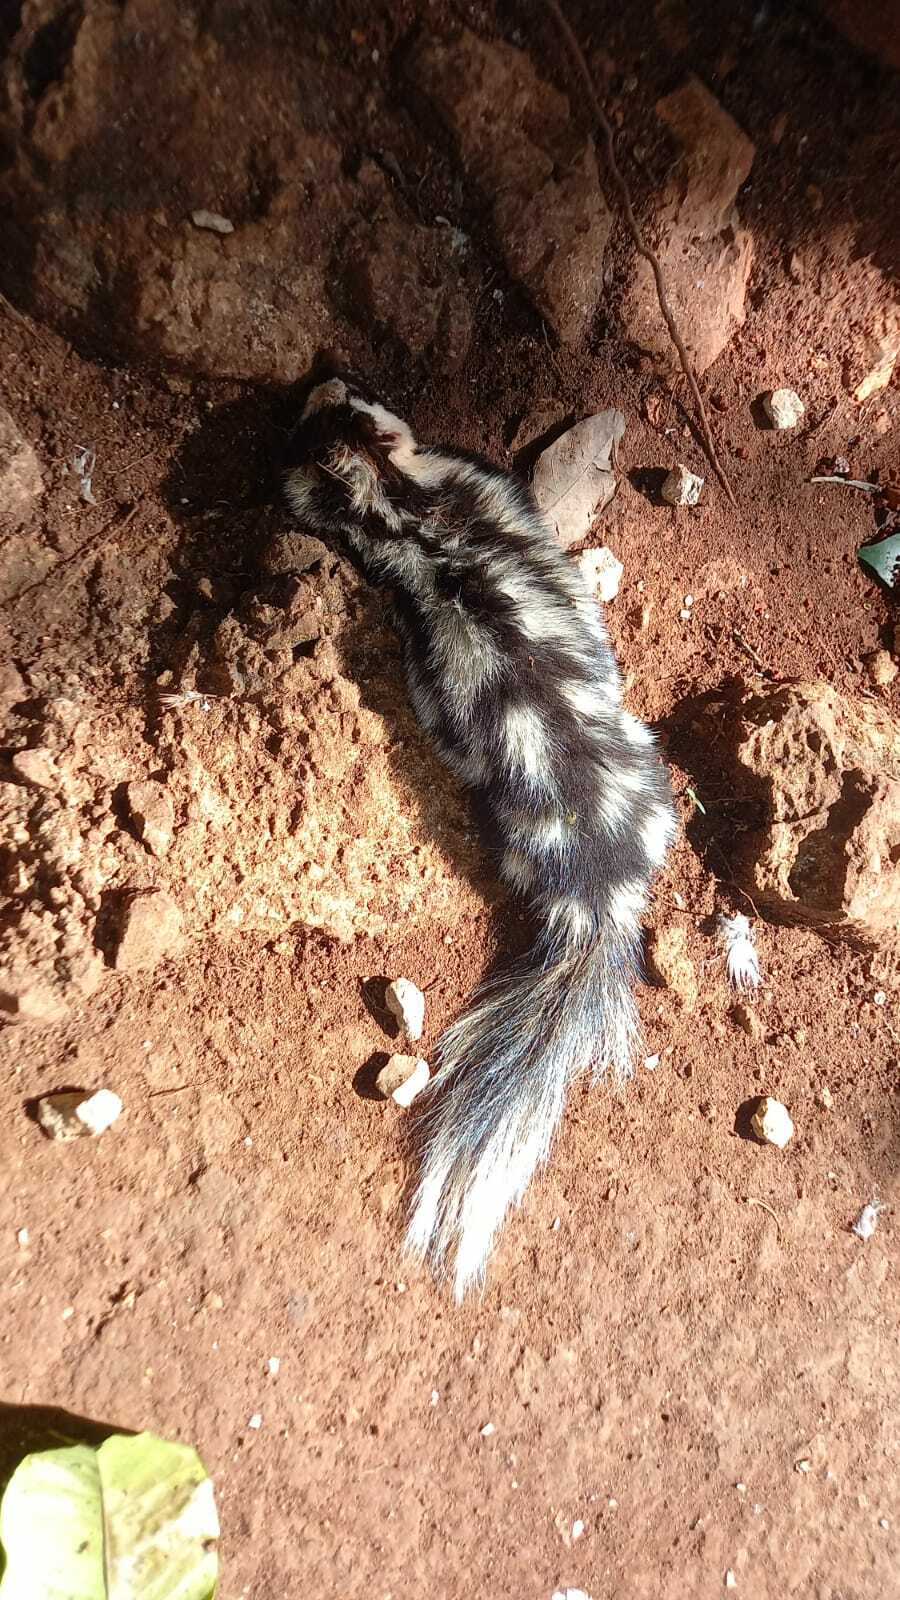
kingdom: Animalia
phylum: Chordata
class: Mammalia
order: Carnivora
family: Mephitidae
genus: Spilogale
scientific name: Spilogale angustifrons
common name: Southern spotted skunk
